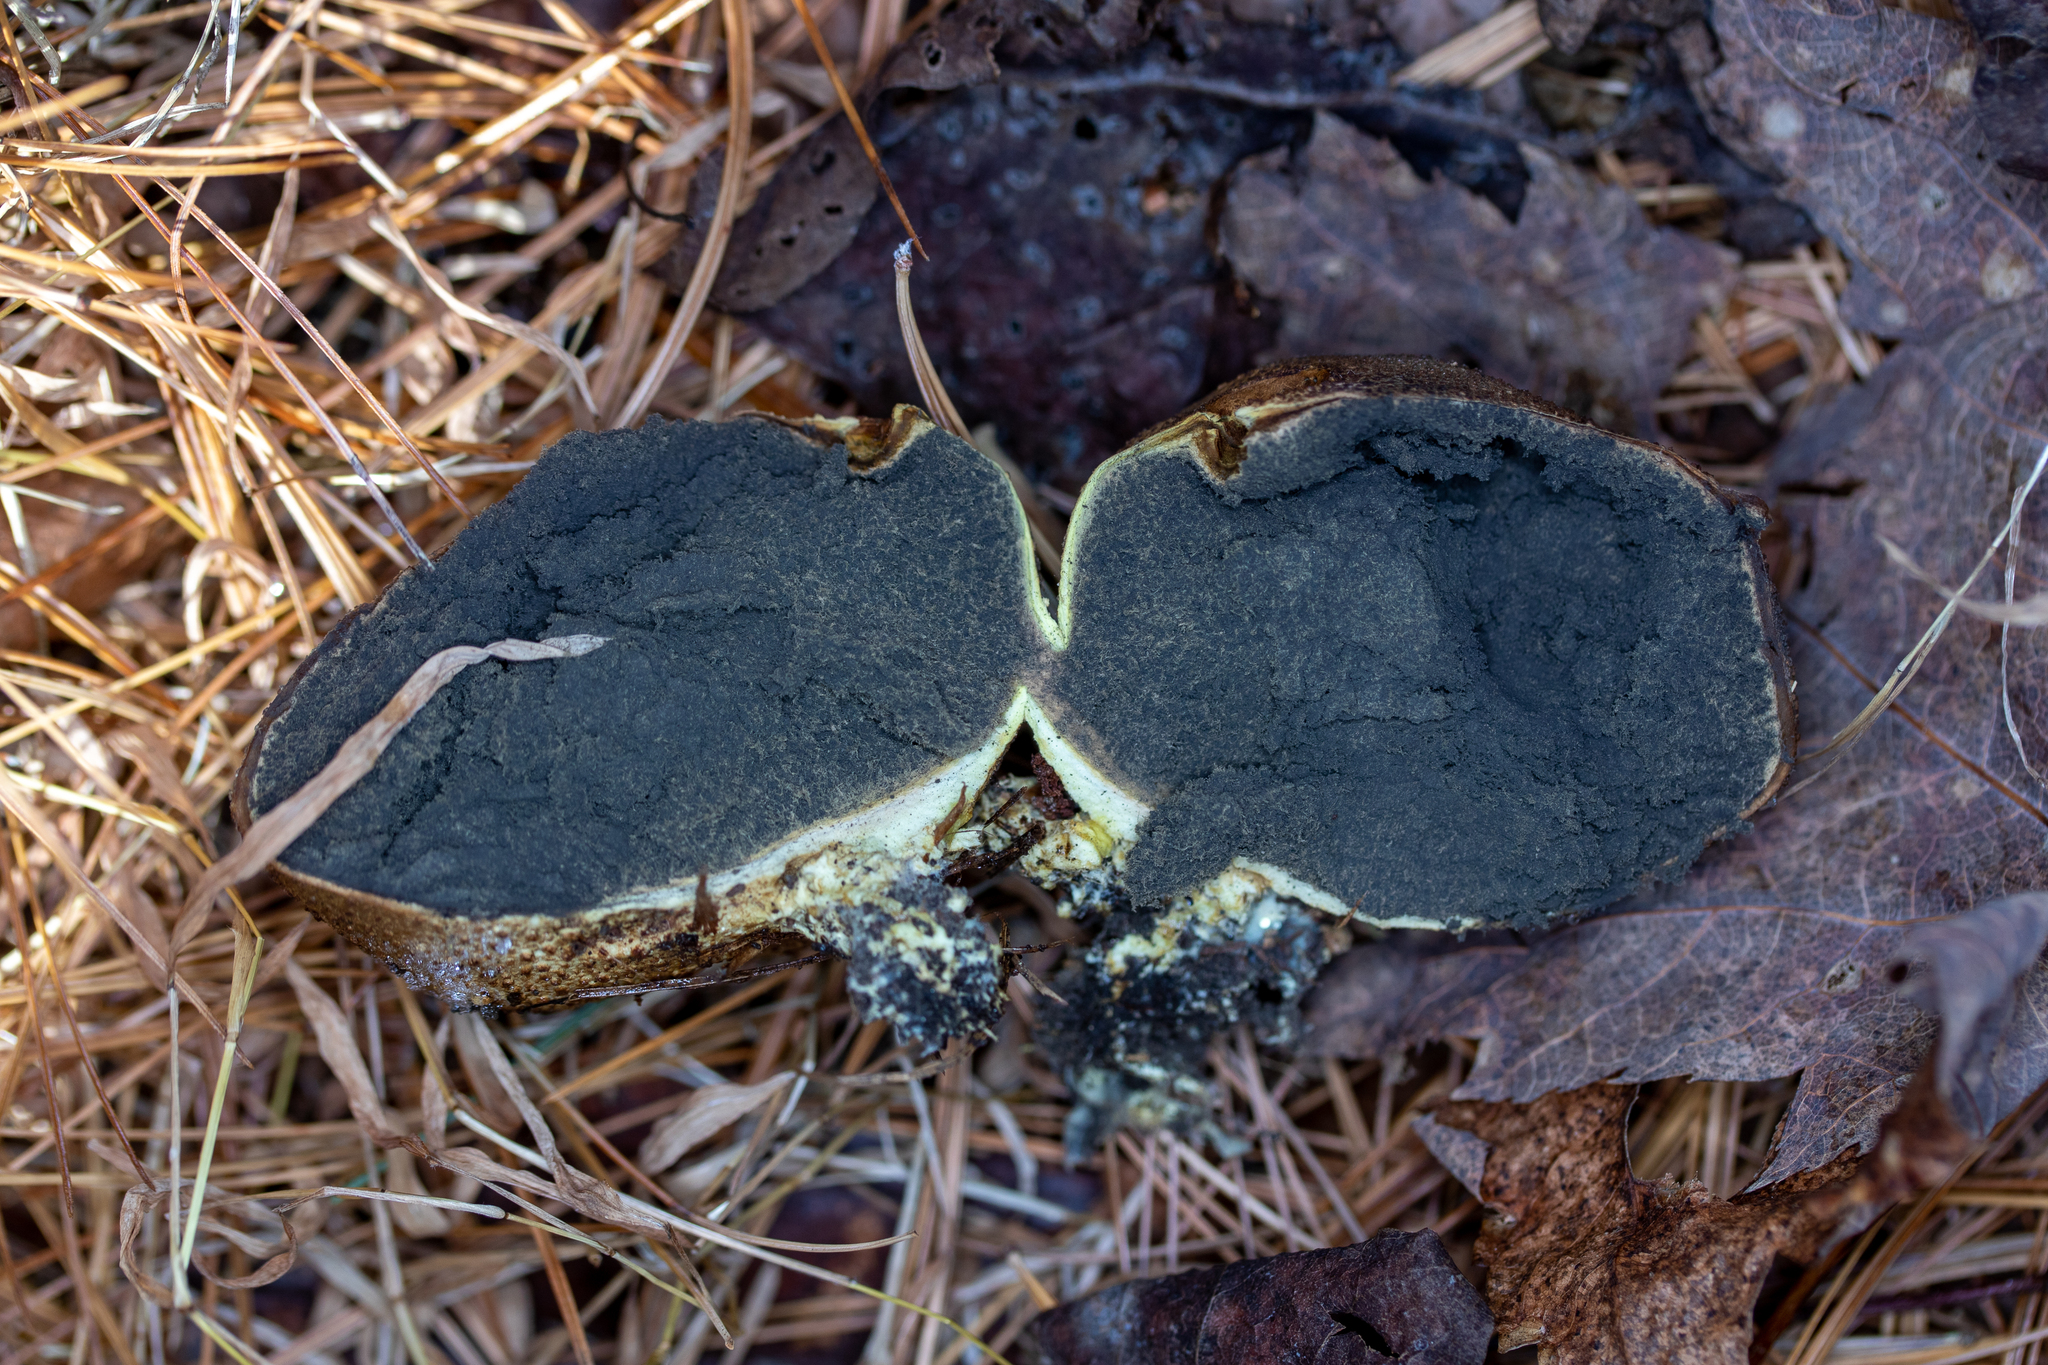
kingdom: Fungi
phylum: Basidiomycota
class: Agaricomycetes
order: Boletales
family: Sclerodermataceae
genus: Scleroderma
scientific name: Scleroderma areolatum
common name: Leopard earthball
